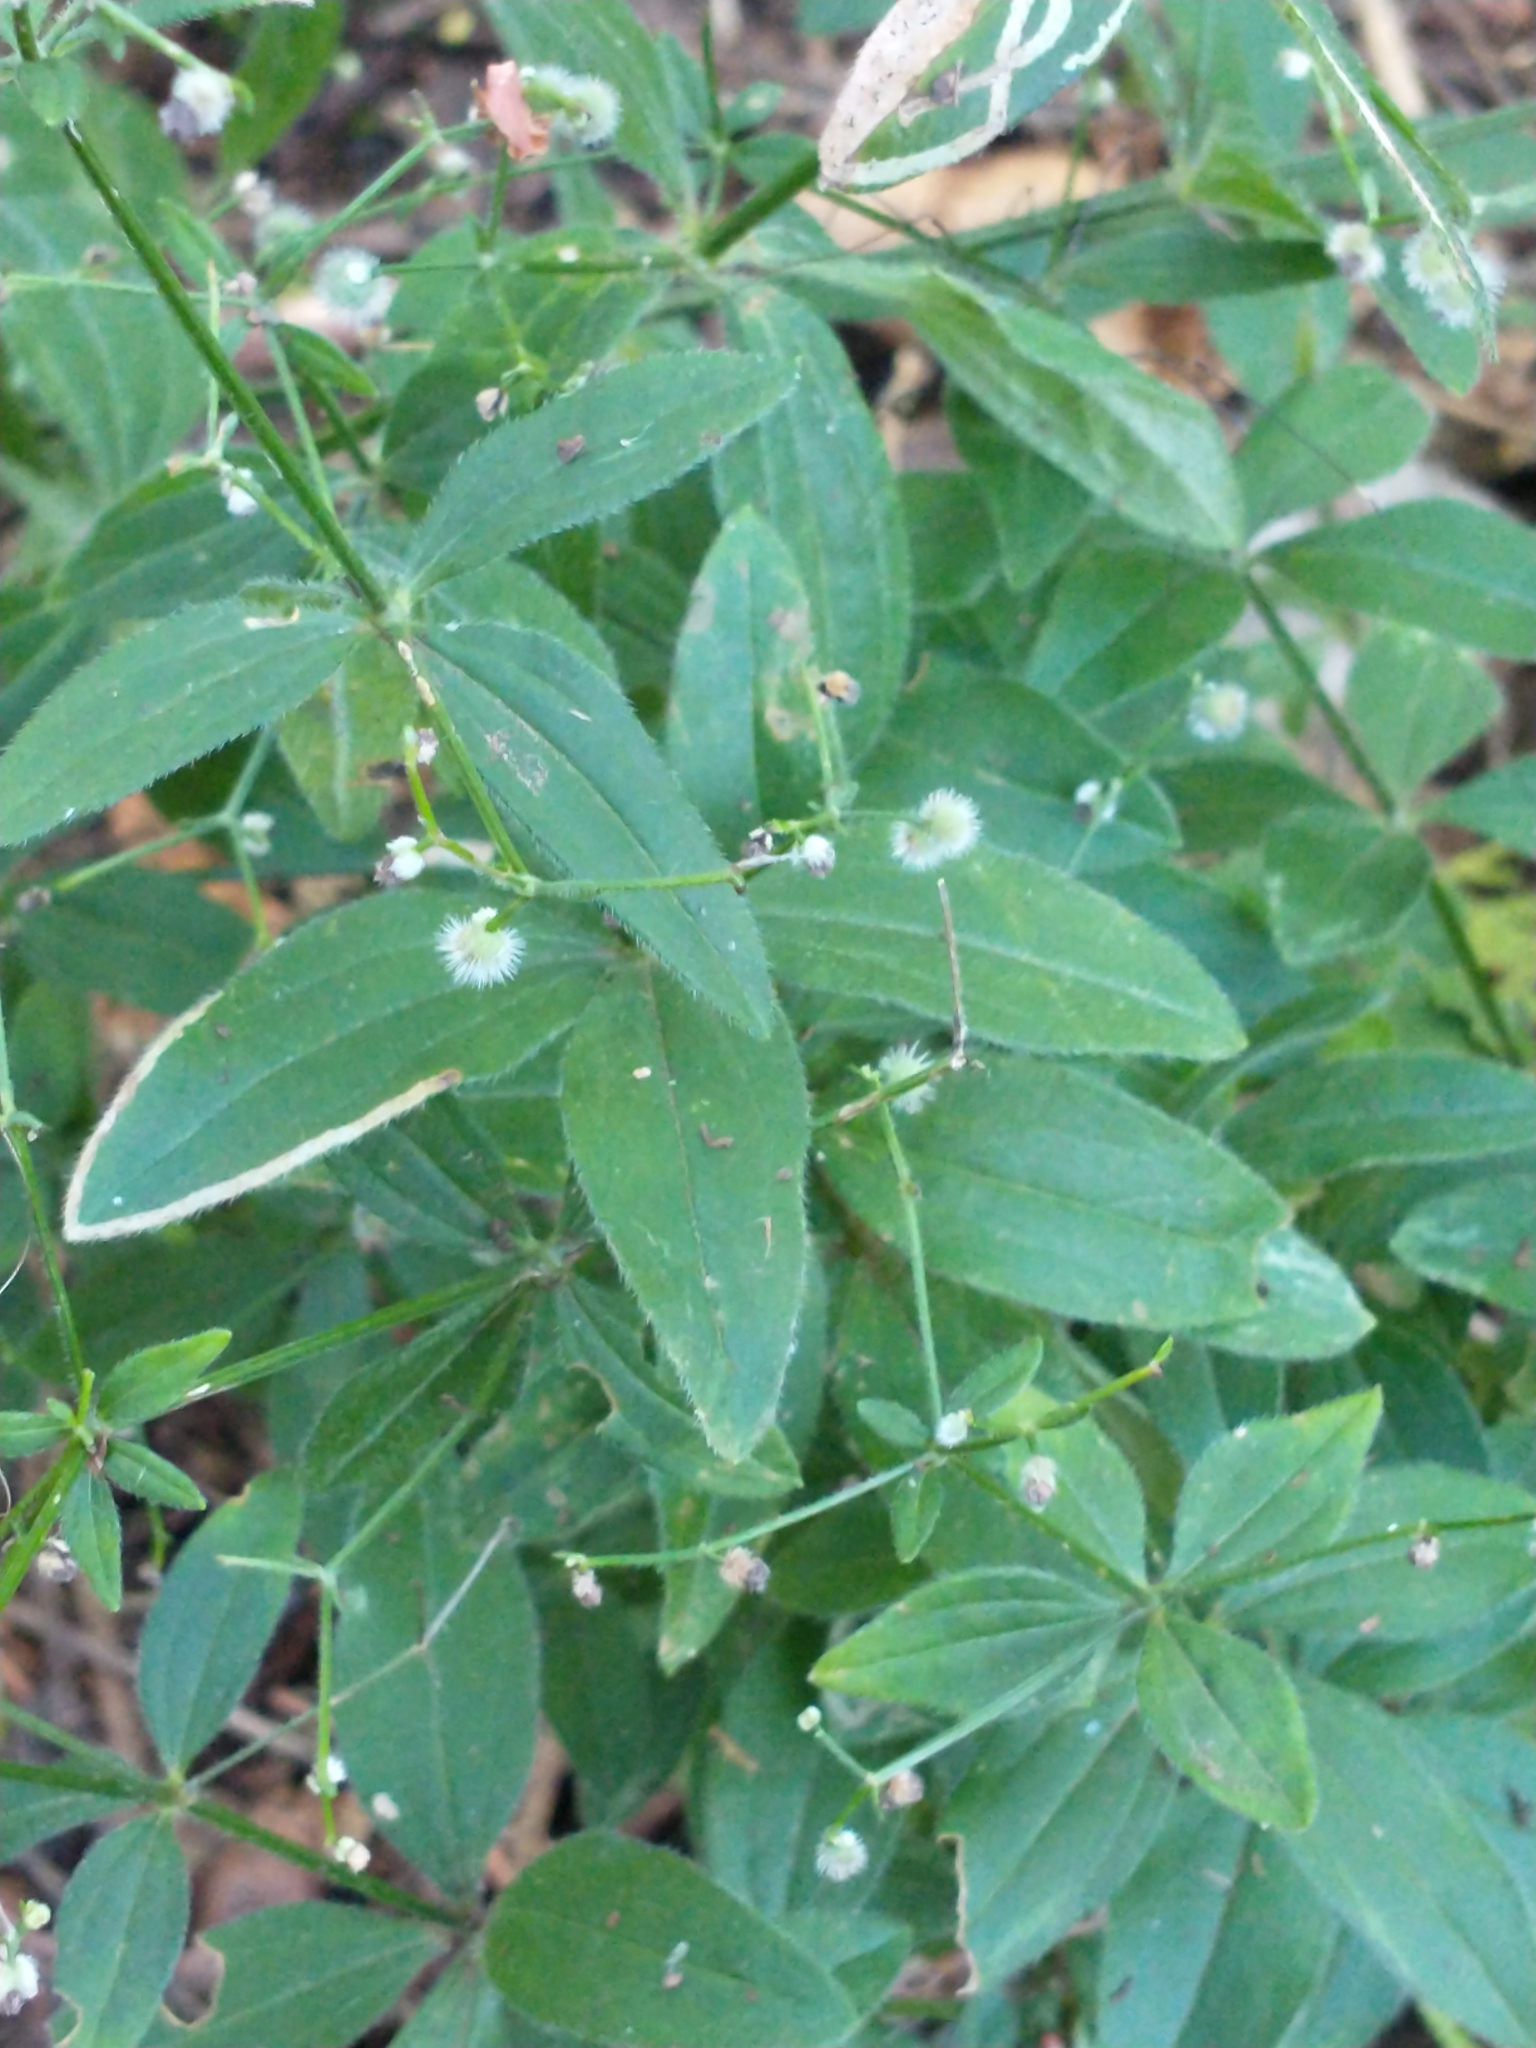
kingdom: Plantae
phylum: Tracheophyta
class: Magnoliopsida
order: Gentianales
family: Rubiaceae
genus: Galium
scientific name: Galium circaezans
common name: Forest bedstraw
